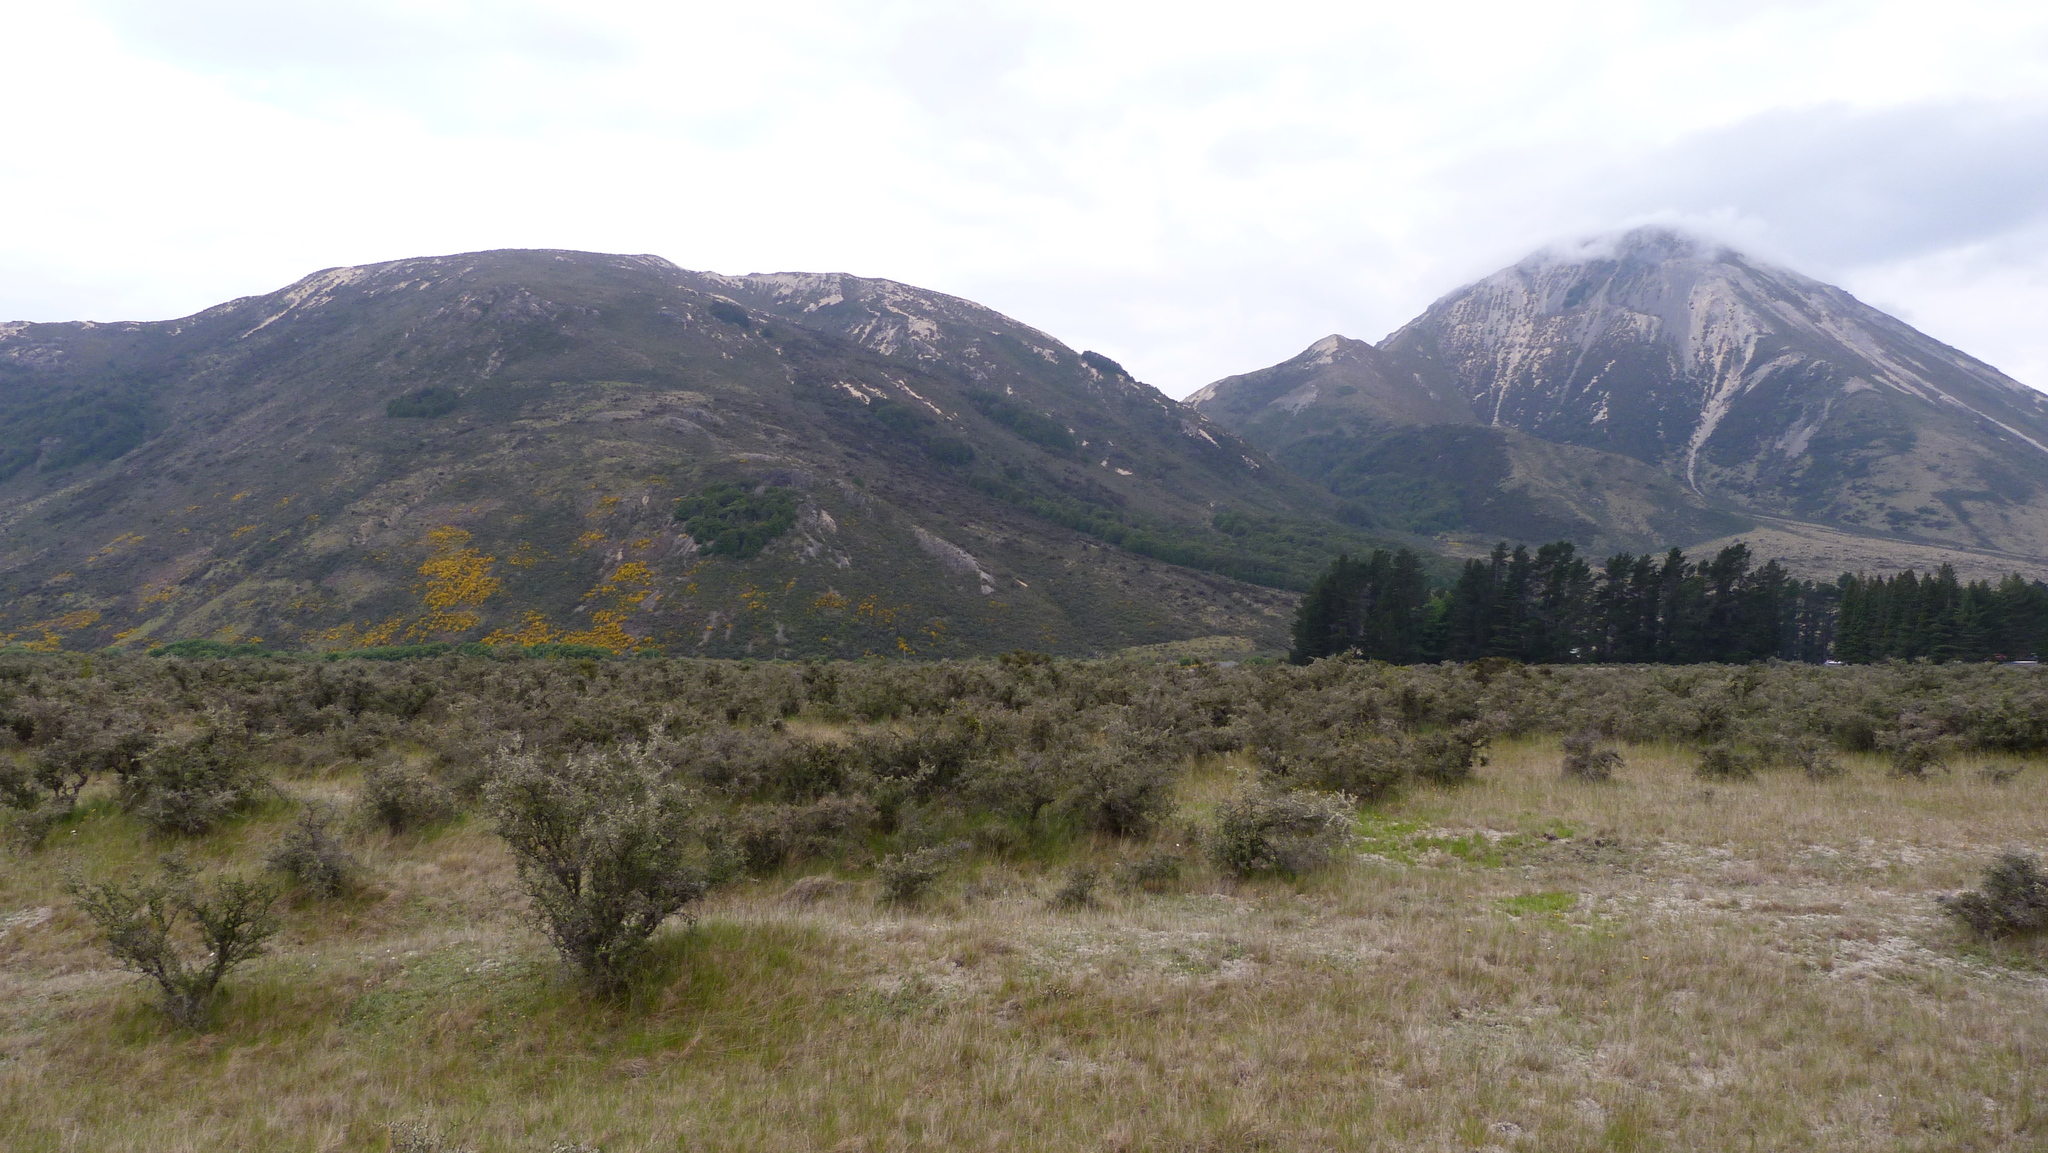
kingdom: Plantae
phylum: Tracheophyta
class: Magnoliopsida
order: Fabales
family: Fabaceae
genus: Cytisus
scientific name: Cytisus scoparius
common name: Scotch broom
